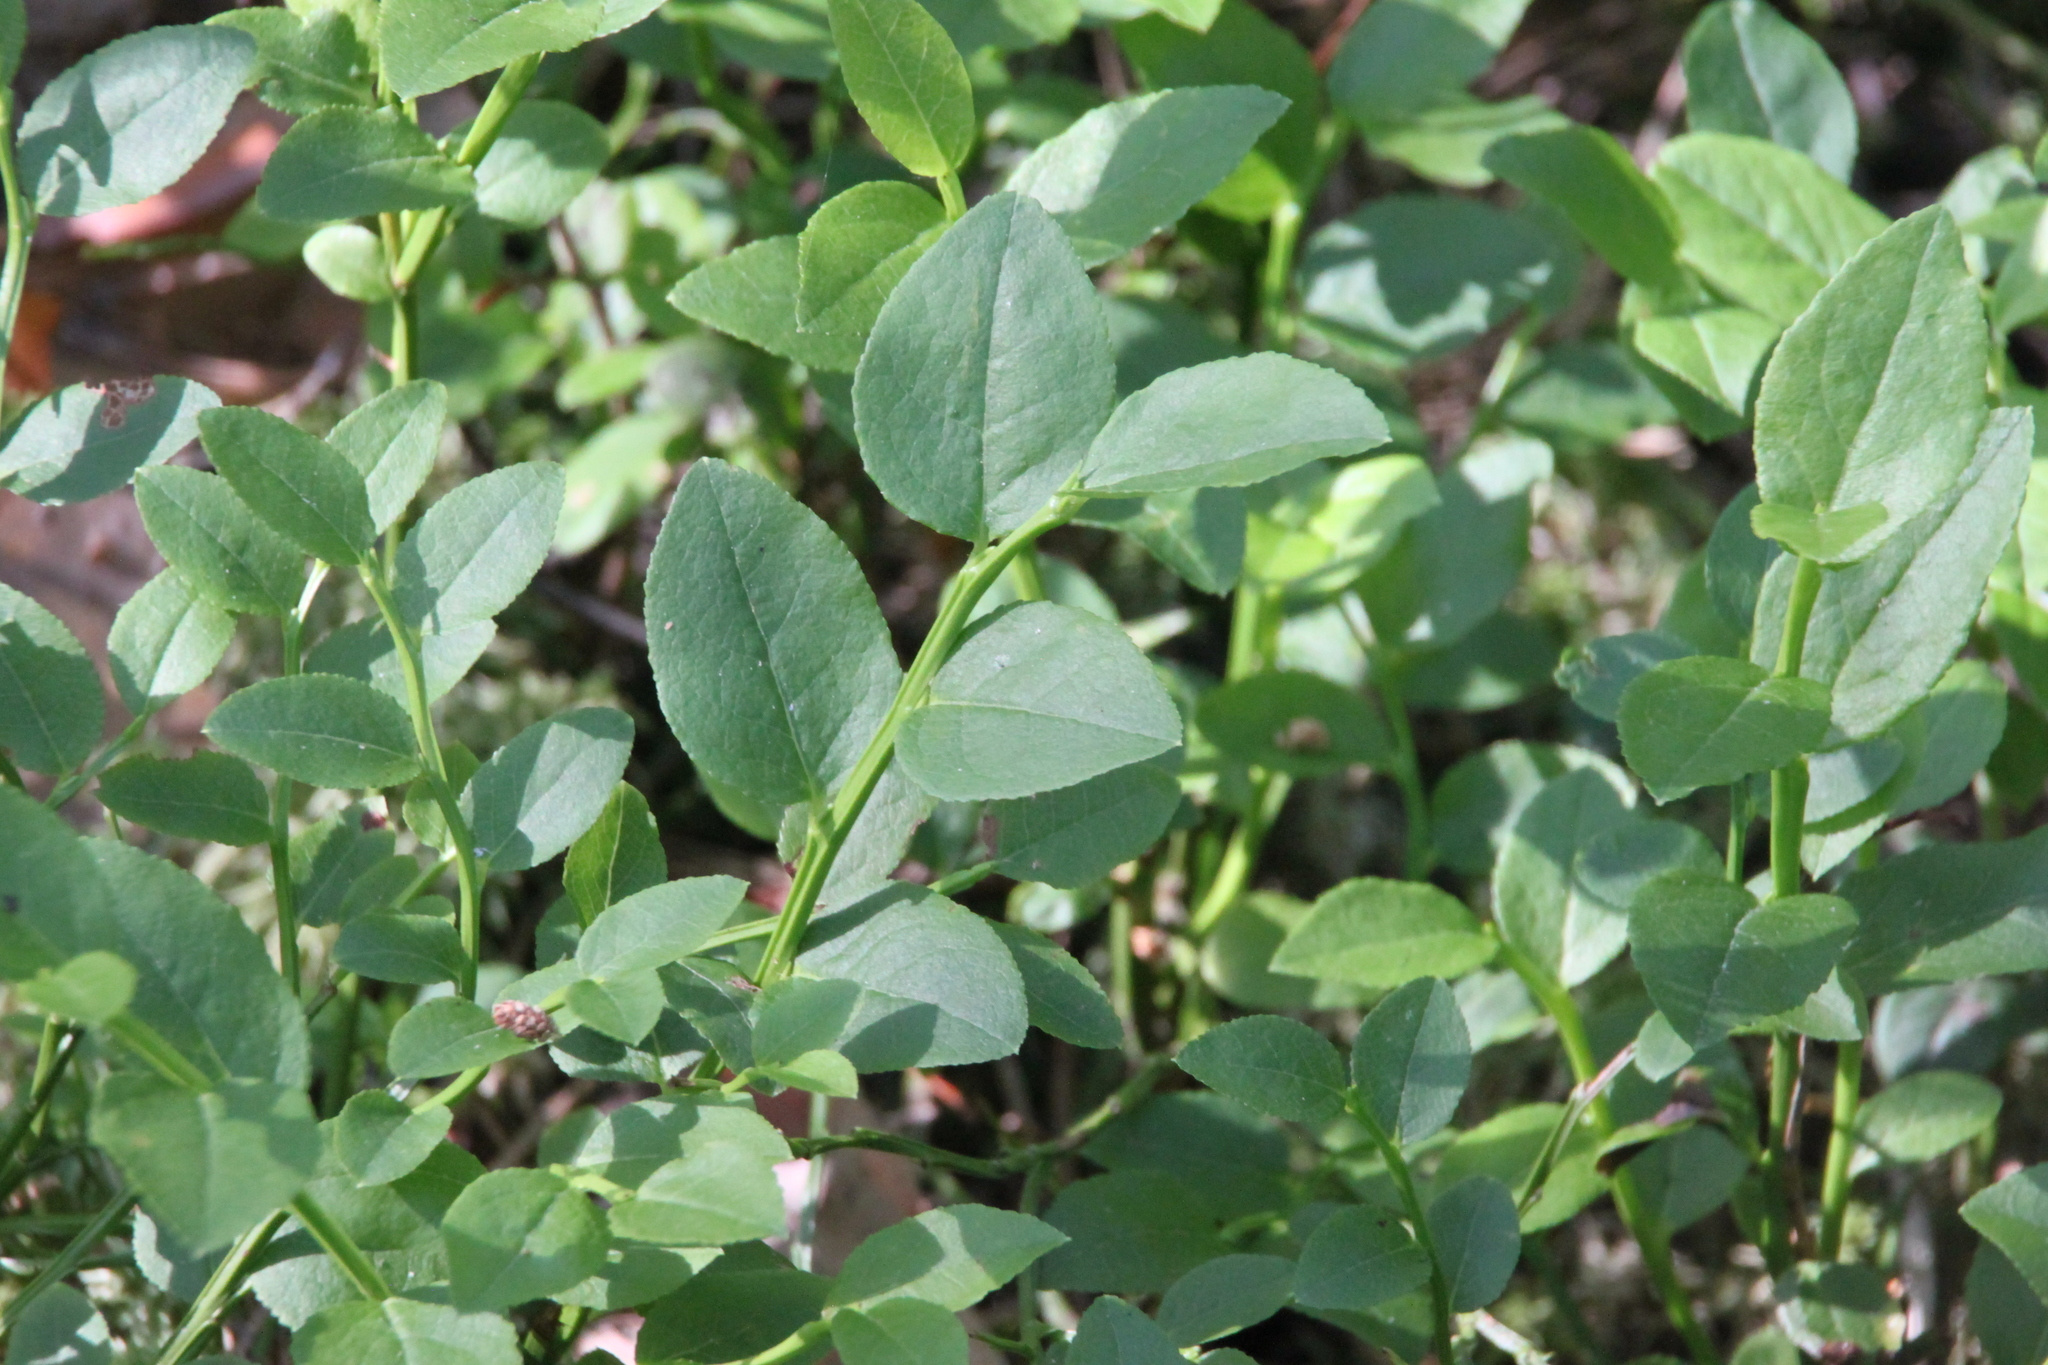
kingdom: Plantae
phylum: Tracheophyta
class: Magnoliopsida
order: Ericales
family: Ericaceae
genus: Vaccinium
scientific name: Vaccinium myrtillus
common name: Bilberry
